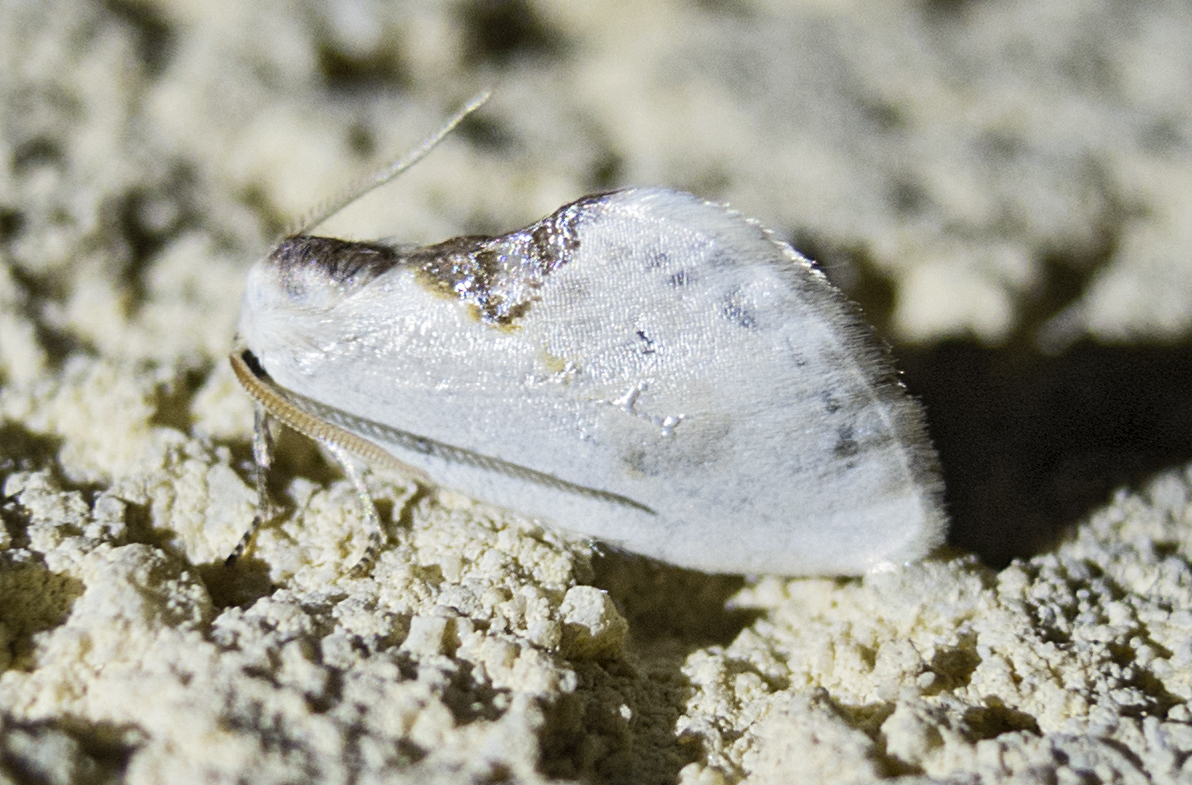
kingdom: Animalia
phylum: Arthropoda
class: Insecta
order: Lepidoptera
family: Drepanidae
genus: Cilix
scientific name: Cilix glaucata
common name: Chinese character
